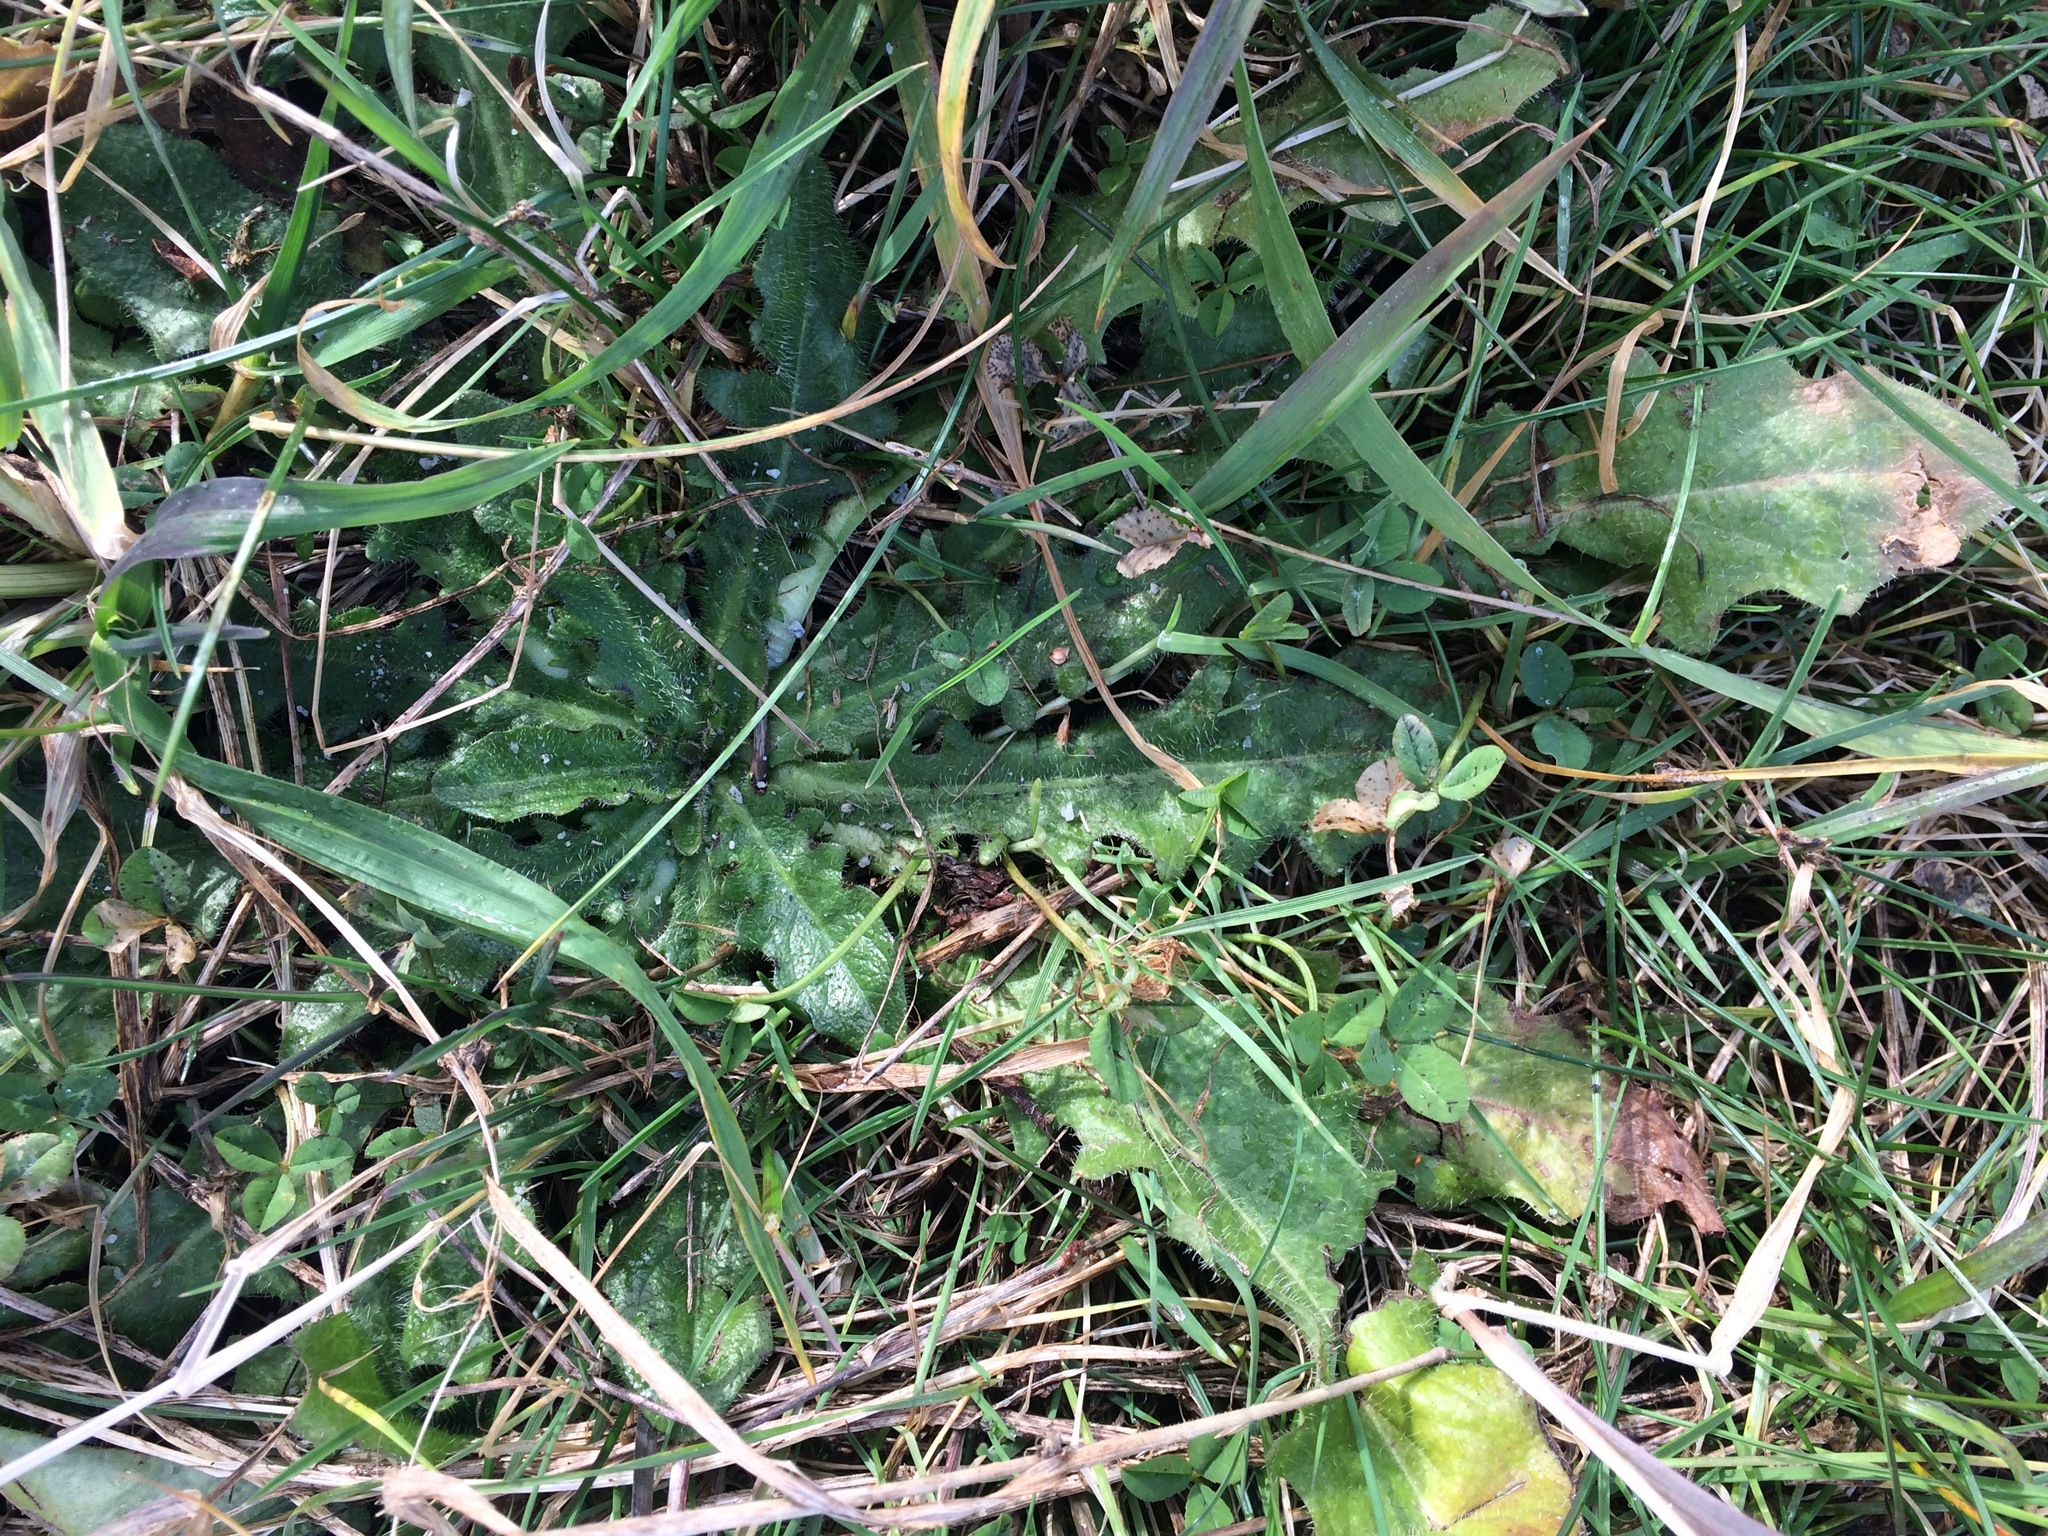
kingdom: Plantae
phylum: Tracheophyta
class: Magnoliopsida
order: Asterales
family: Asteraceae
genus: Hypochaeris
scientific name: Hypochaeris radicata
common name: Flatweed
